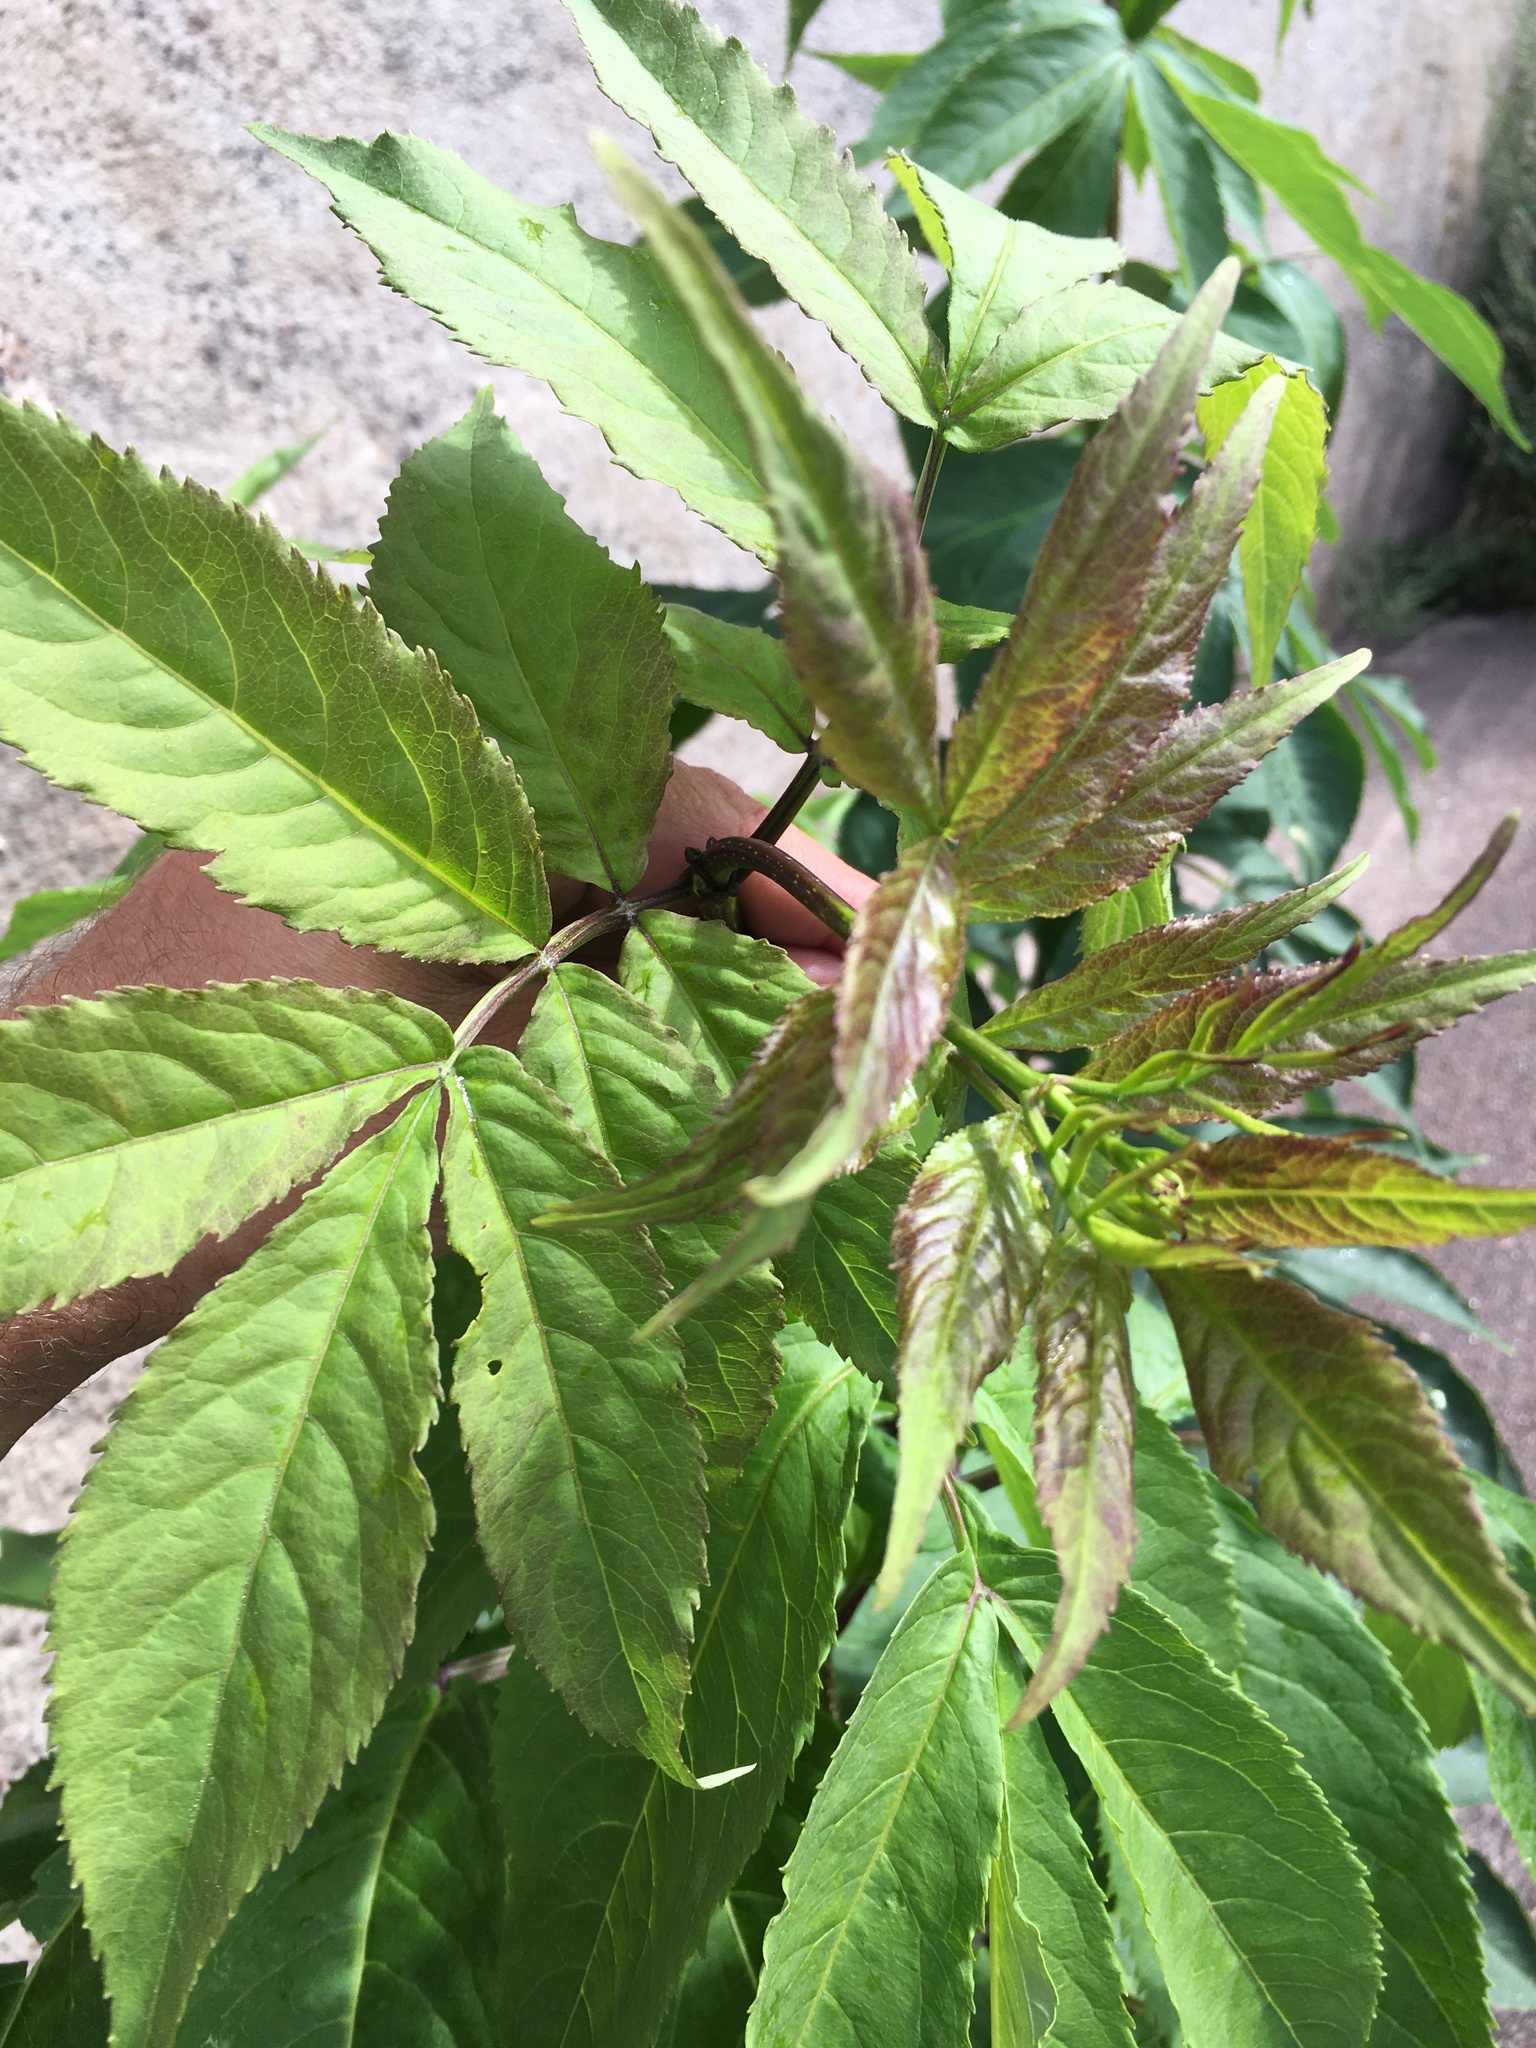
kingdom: Plantae
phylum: Tracheophyta
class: Magnoliopsida
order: Dipsacales
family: Viburnaceae
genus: Sambucus
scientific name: Sambucus racemosa
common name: Red-berried elder
